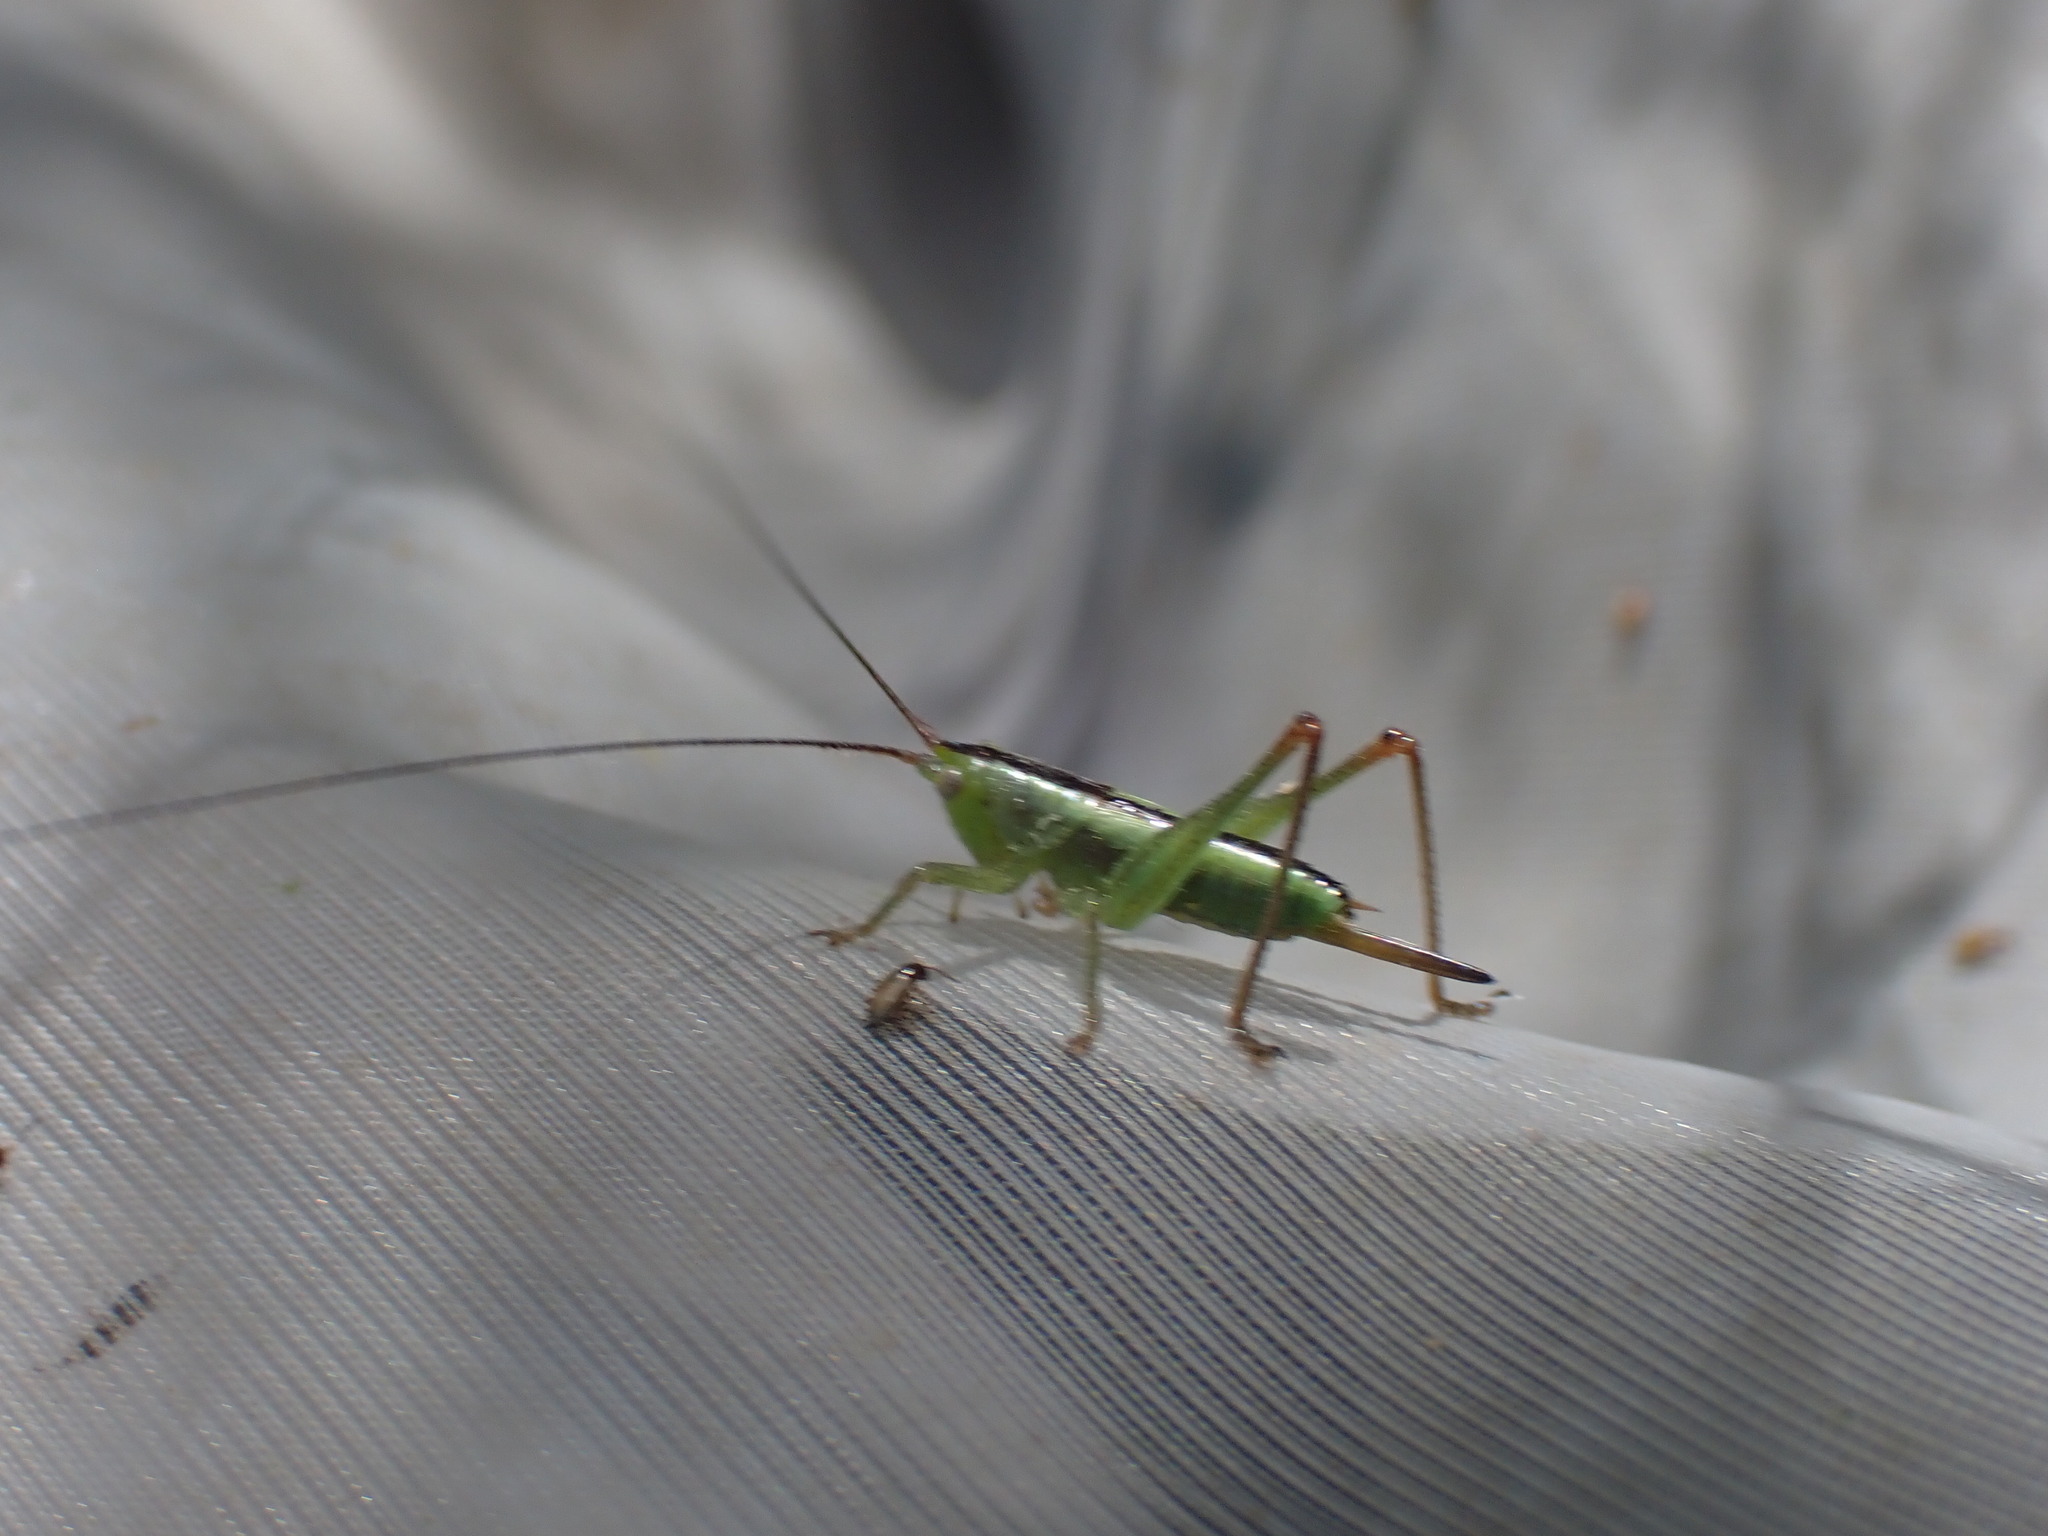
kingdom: Animalia
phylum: Arthropoda
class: Insecta
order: Orthoptera
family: Tettigoniidae
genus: Conocephalus
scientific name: Conocephalus
